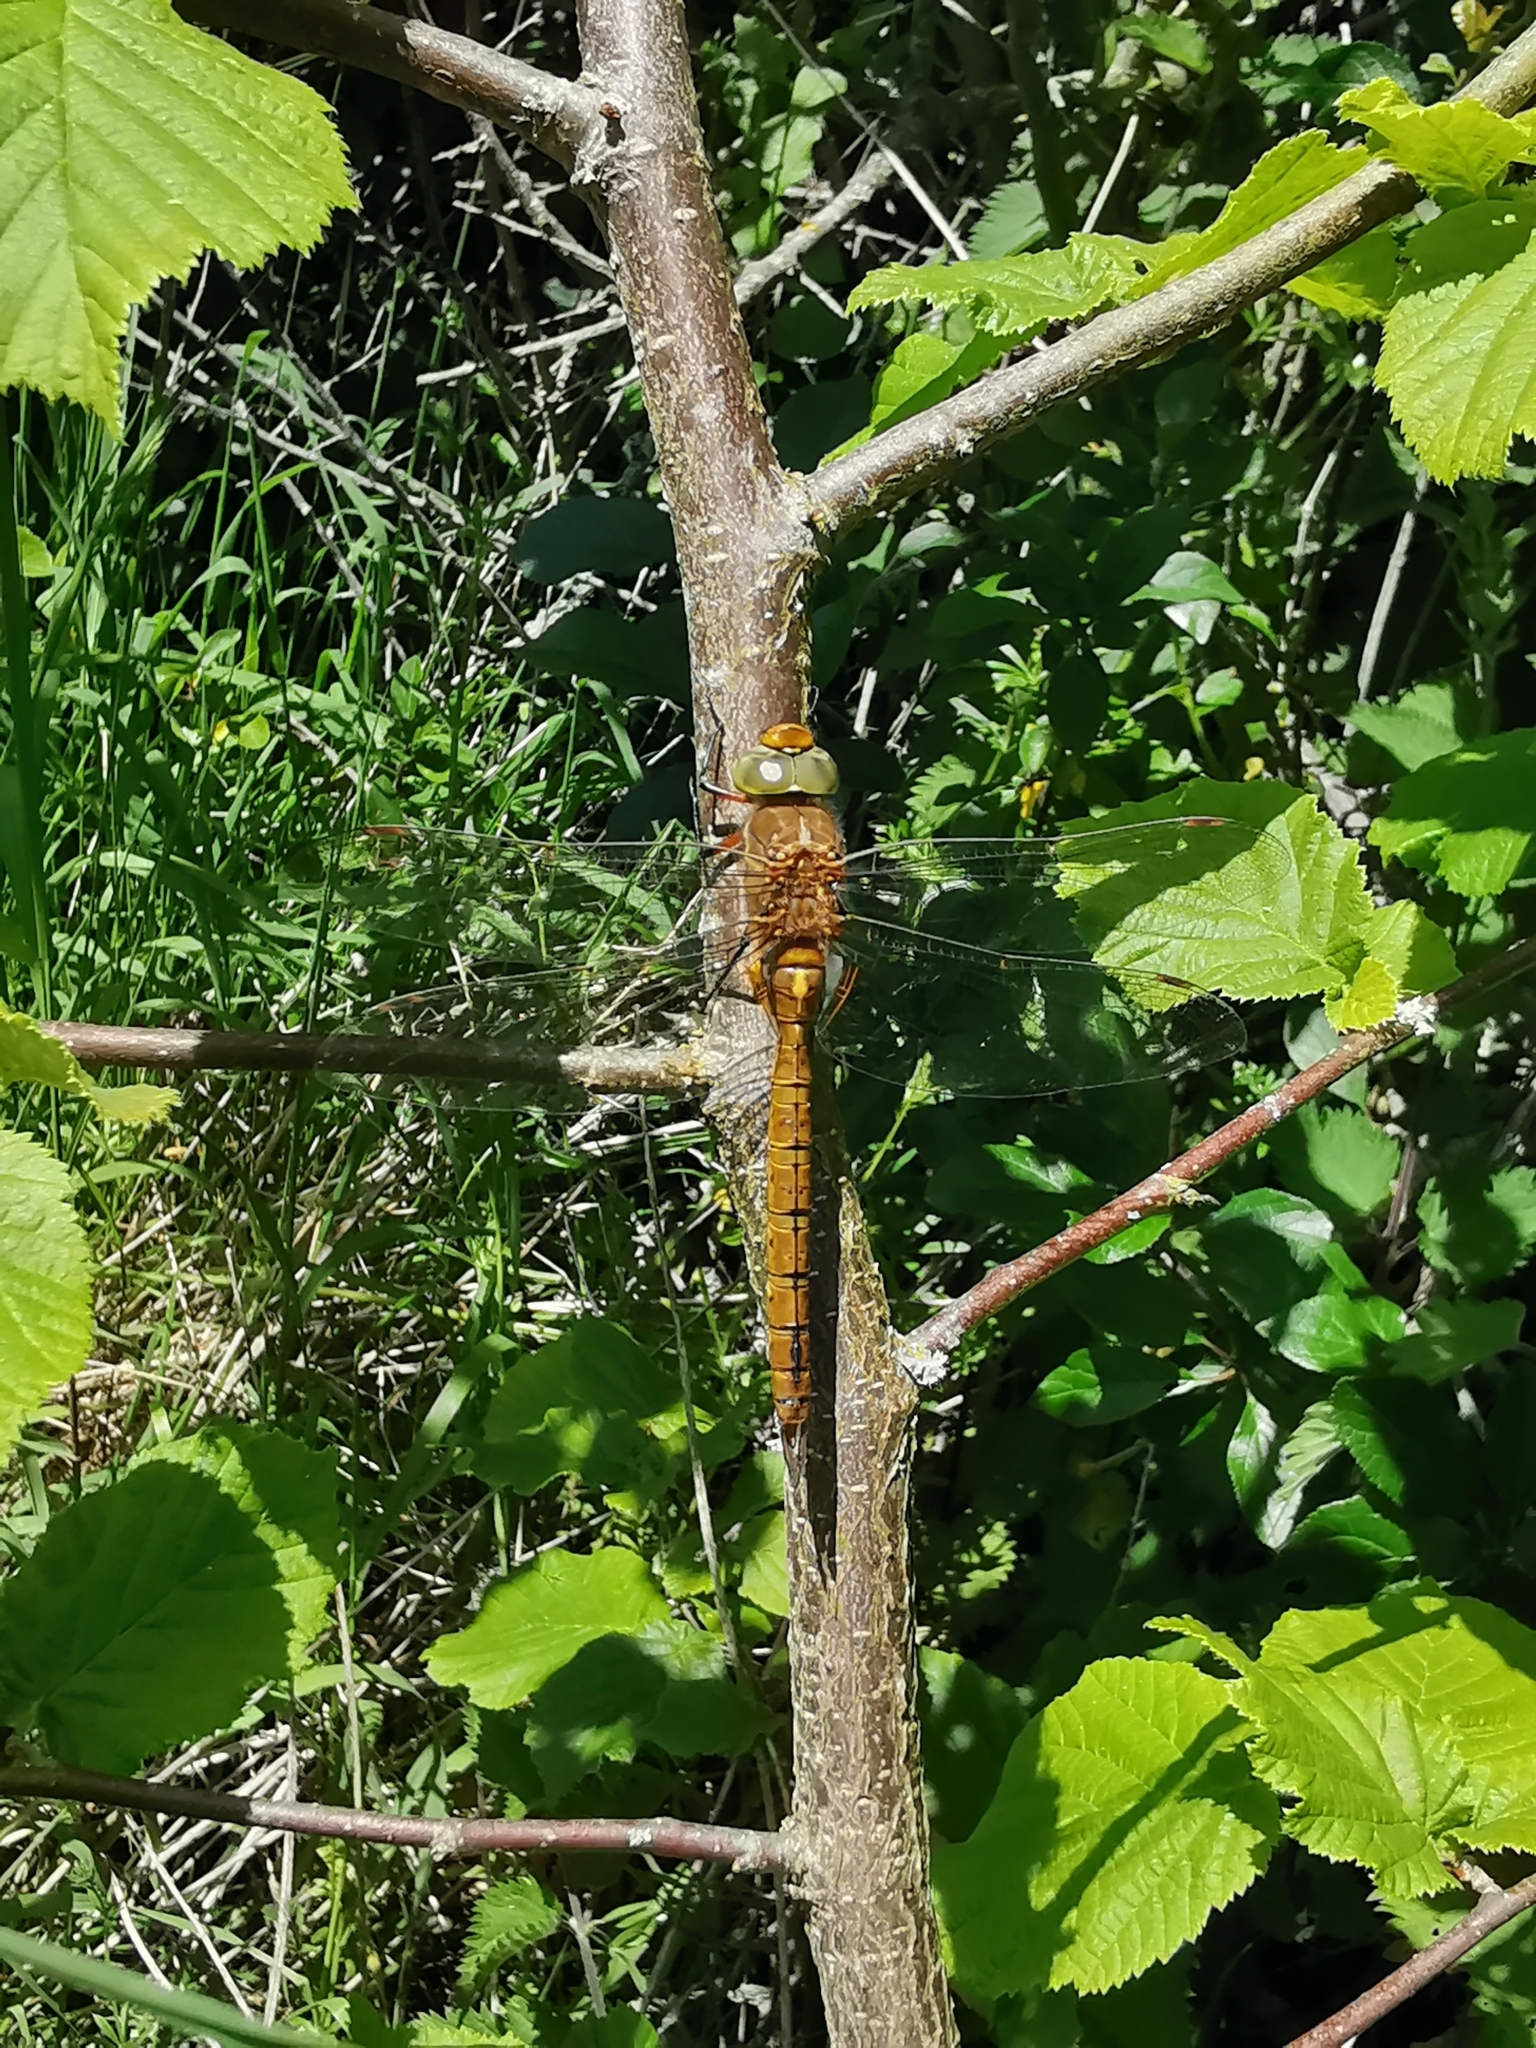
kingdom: Animalia
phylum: Arthropoda
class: Insecta
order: Odonata
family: Aeshnidae
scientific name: Aeshnidae
